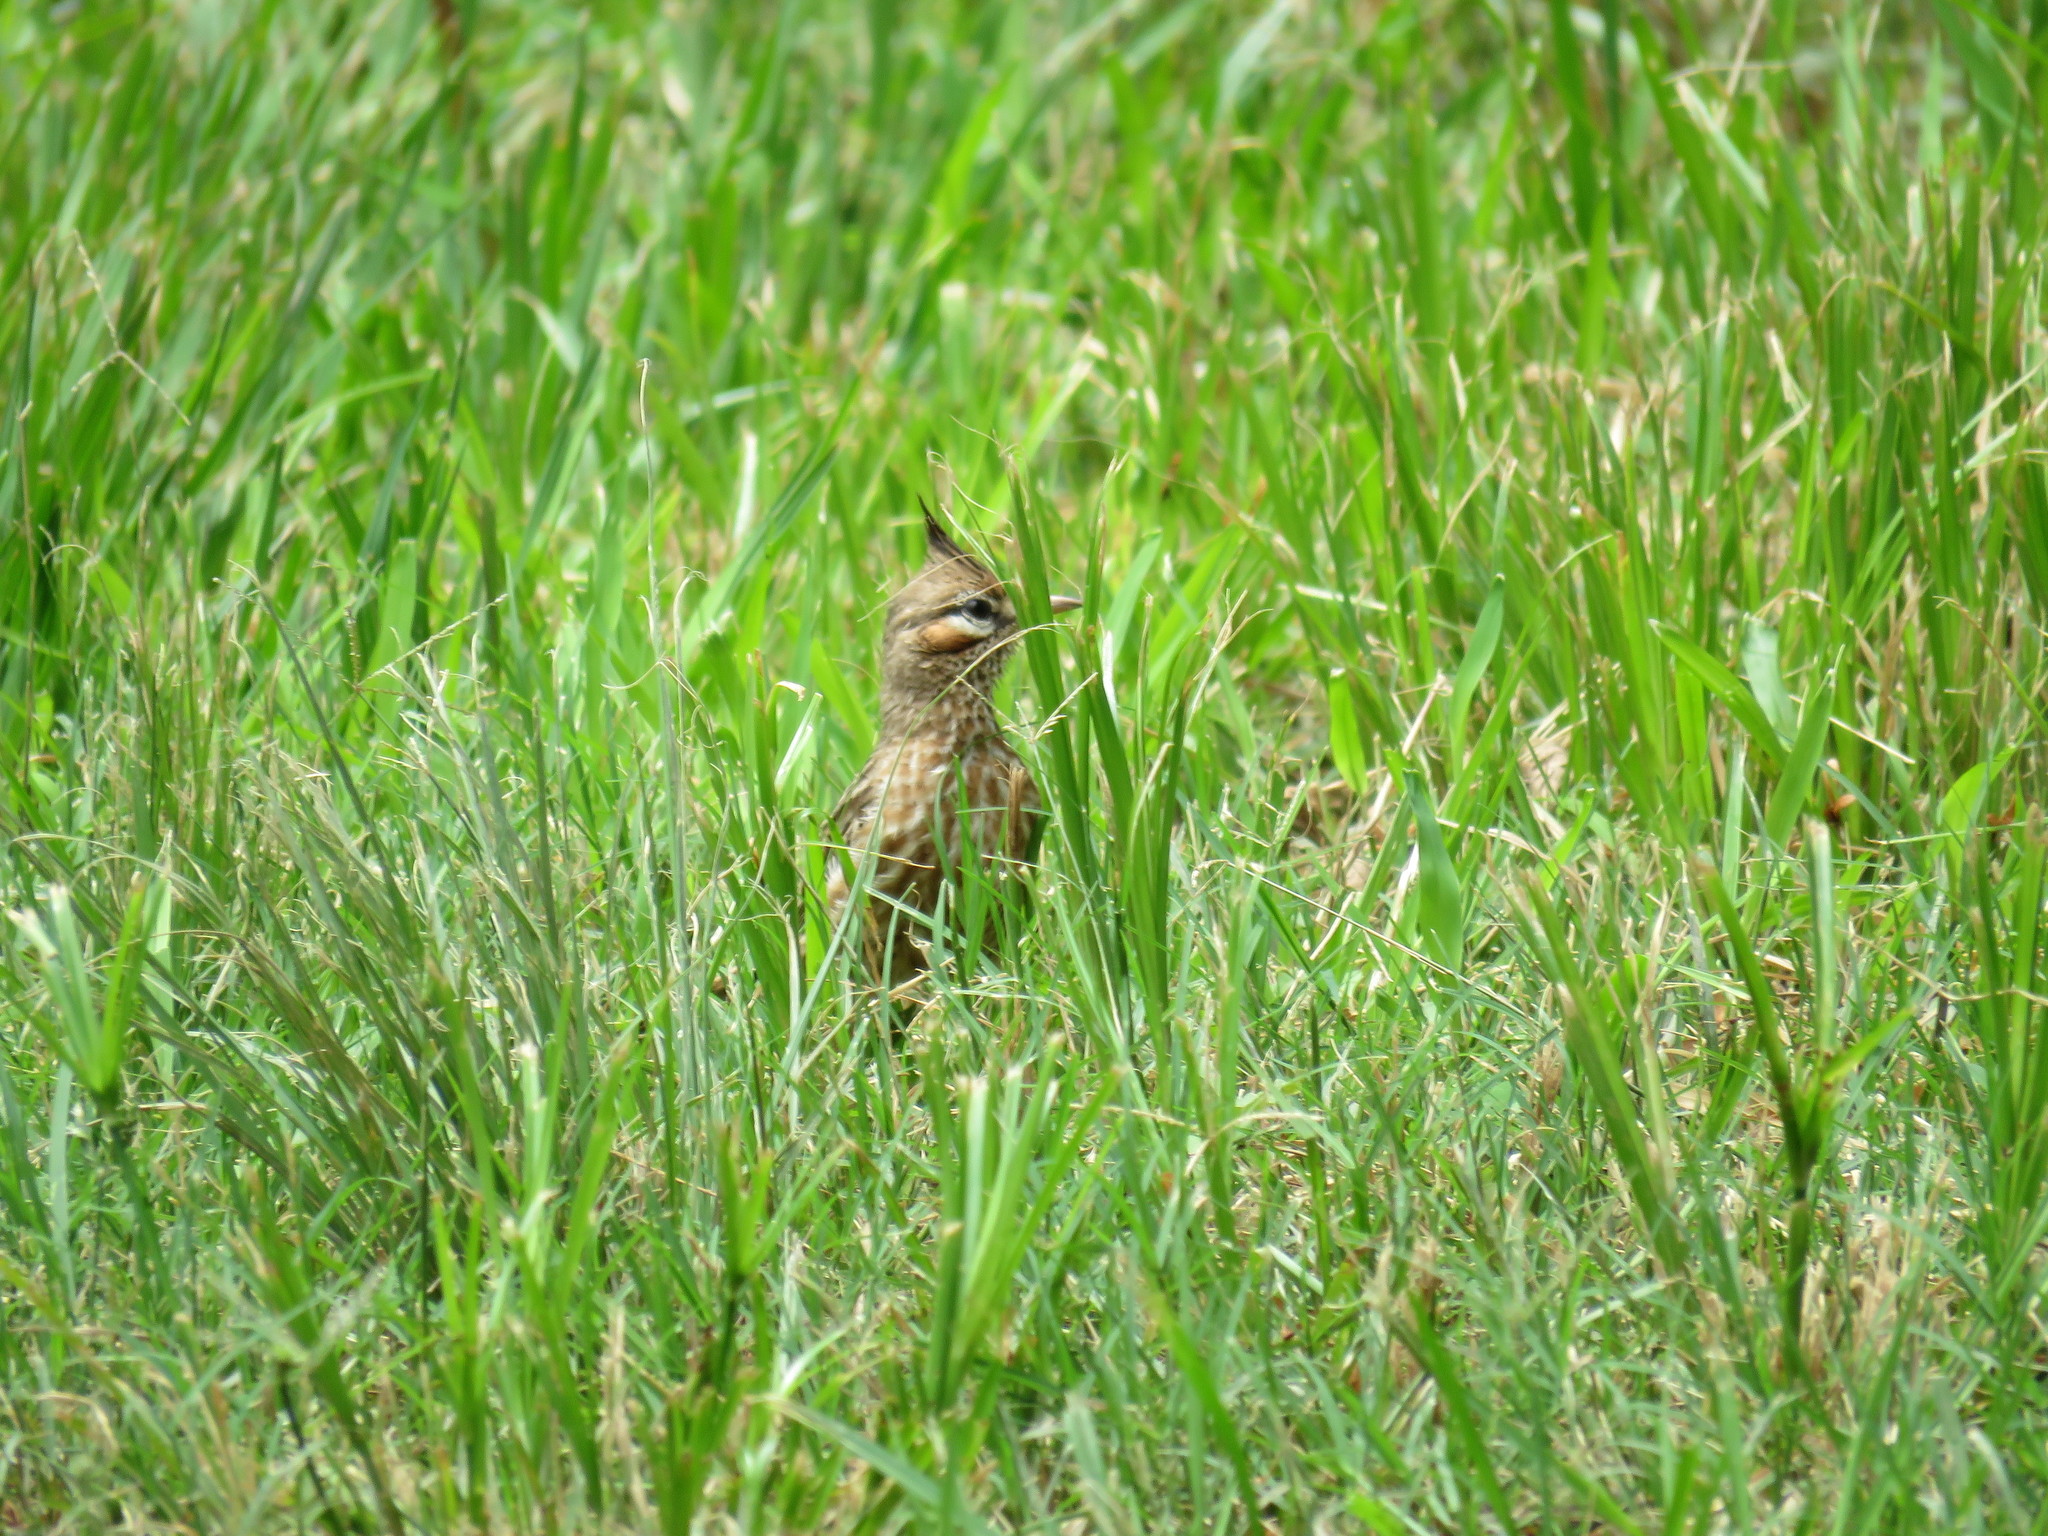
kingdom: Animalia
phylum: Chordata
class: Aves
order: Passeriformes
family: Furnariidae
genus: Coryphistera
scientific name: Coryphistera alaudina
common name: Lark-like brushrunner
